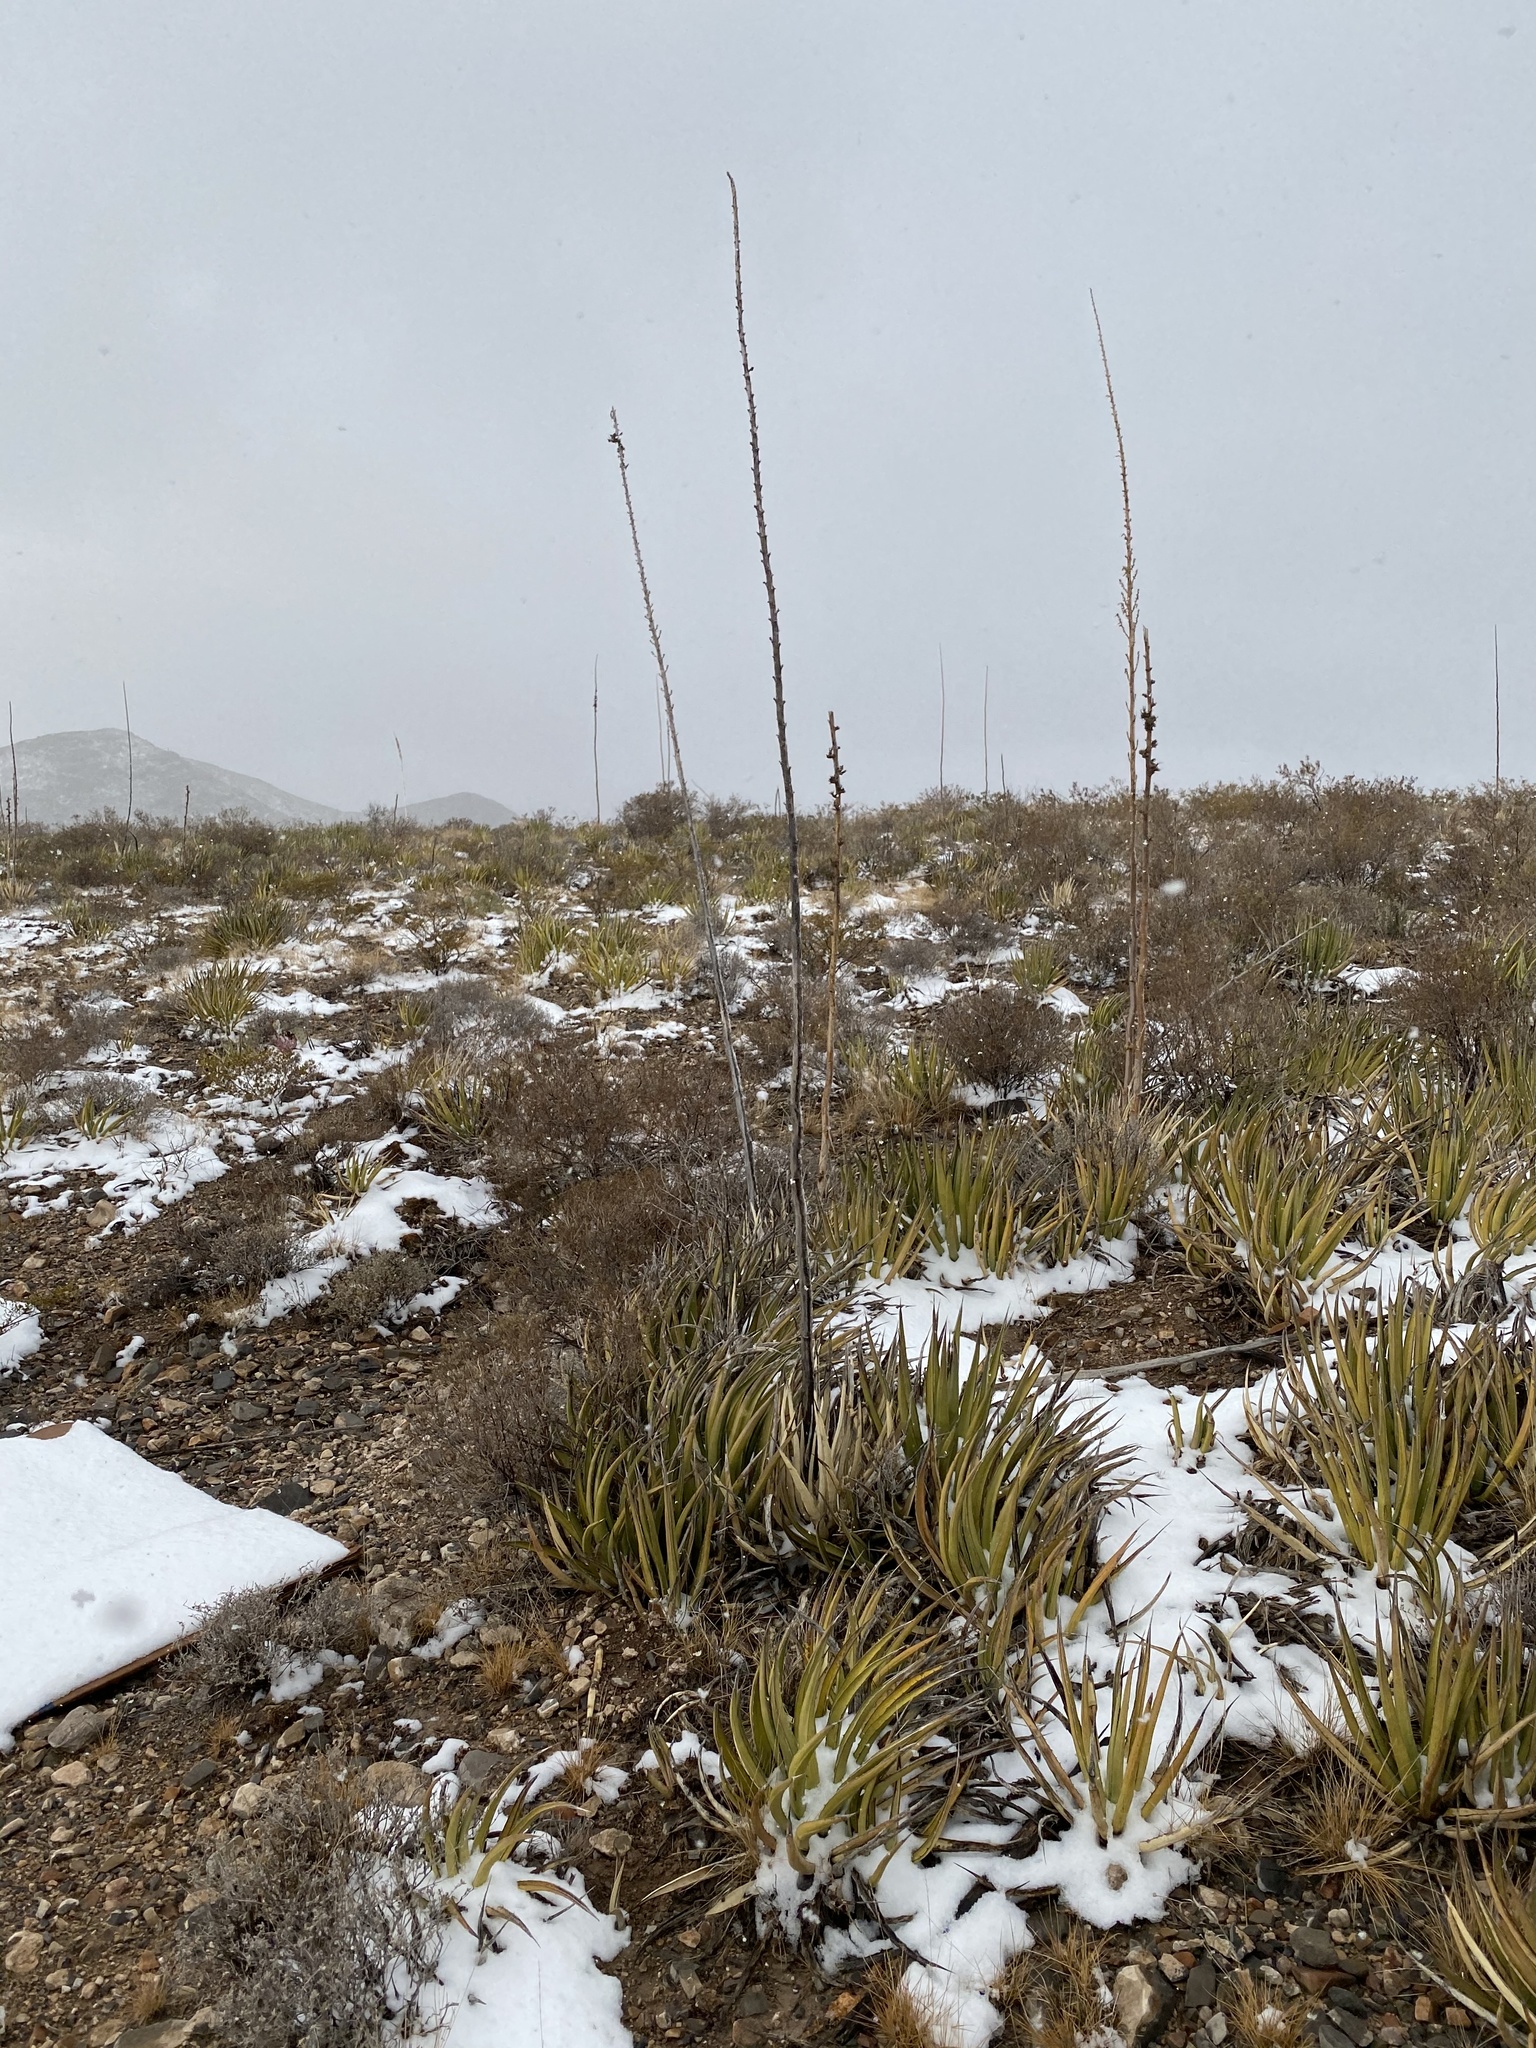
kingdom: Plantae
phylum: Tracheophyta
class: Liliopsida
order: Asparagales
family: Asparagaceae
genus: Agave
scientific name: Agave lechuguilla
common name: Lecheguilla agave
